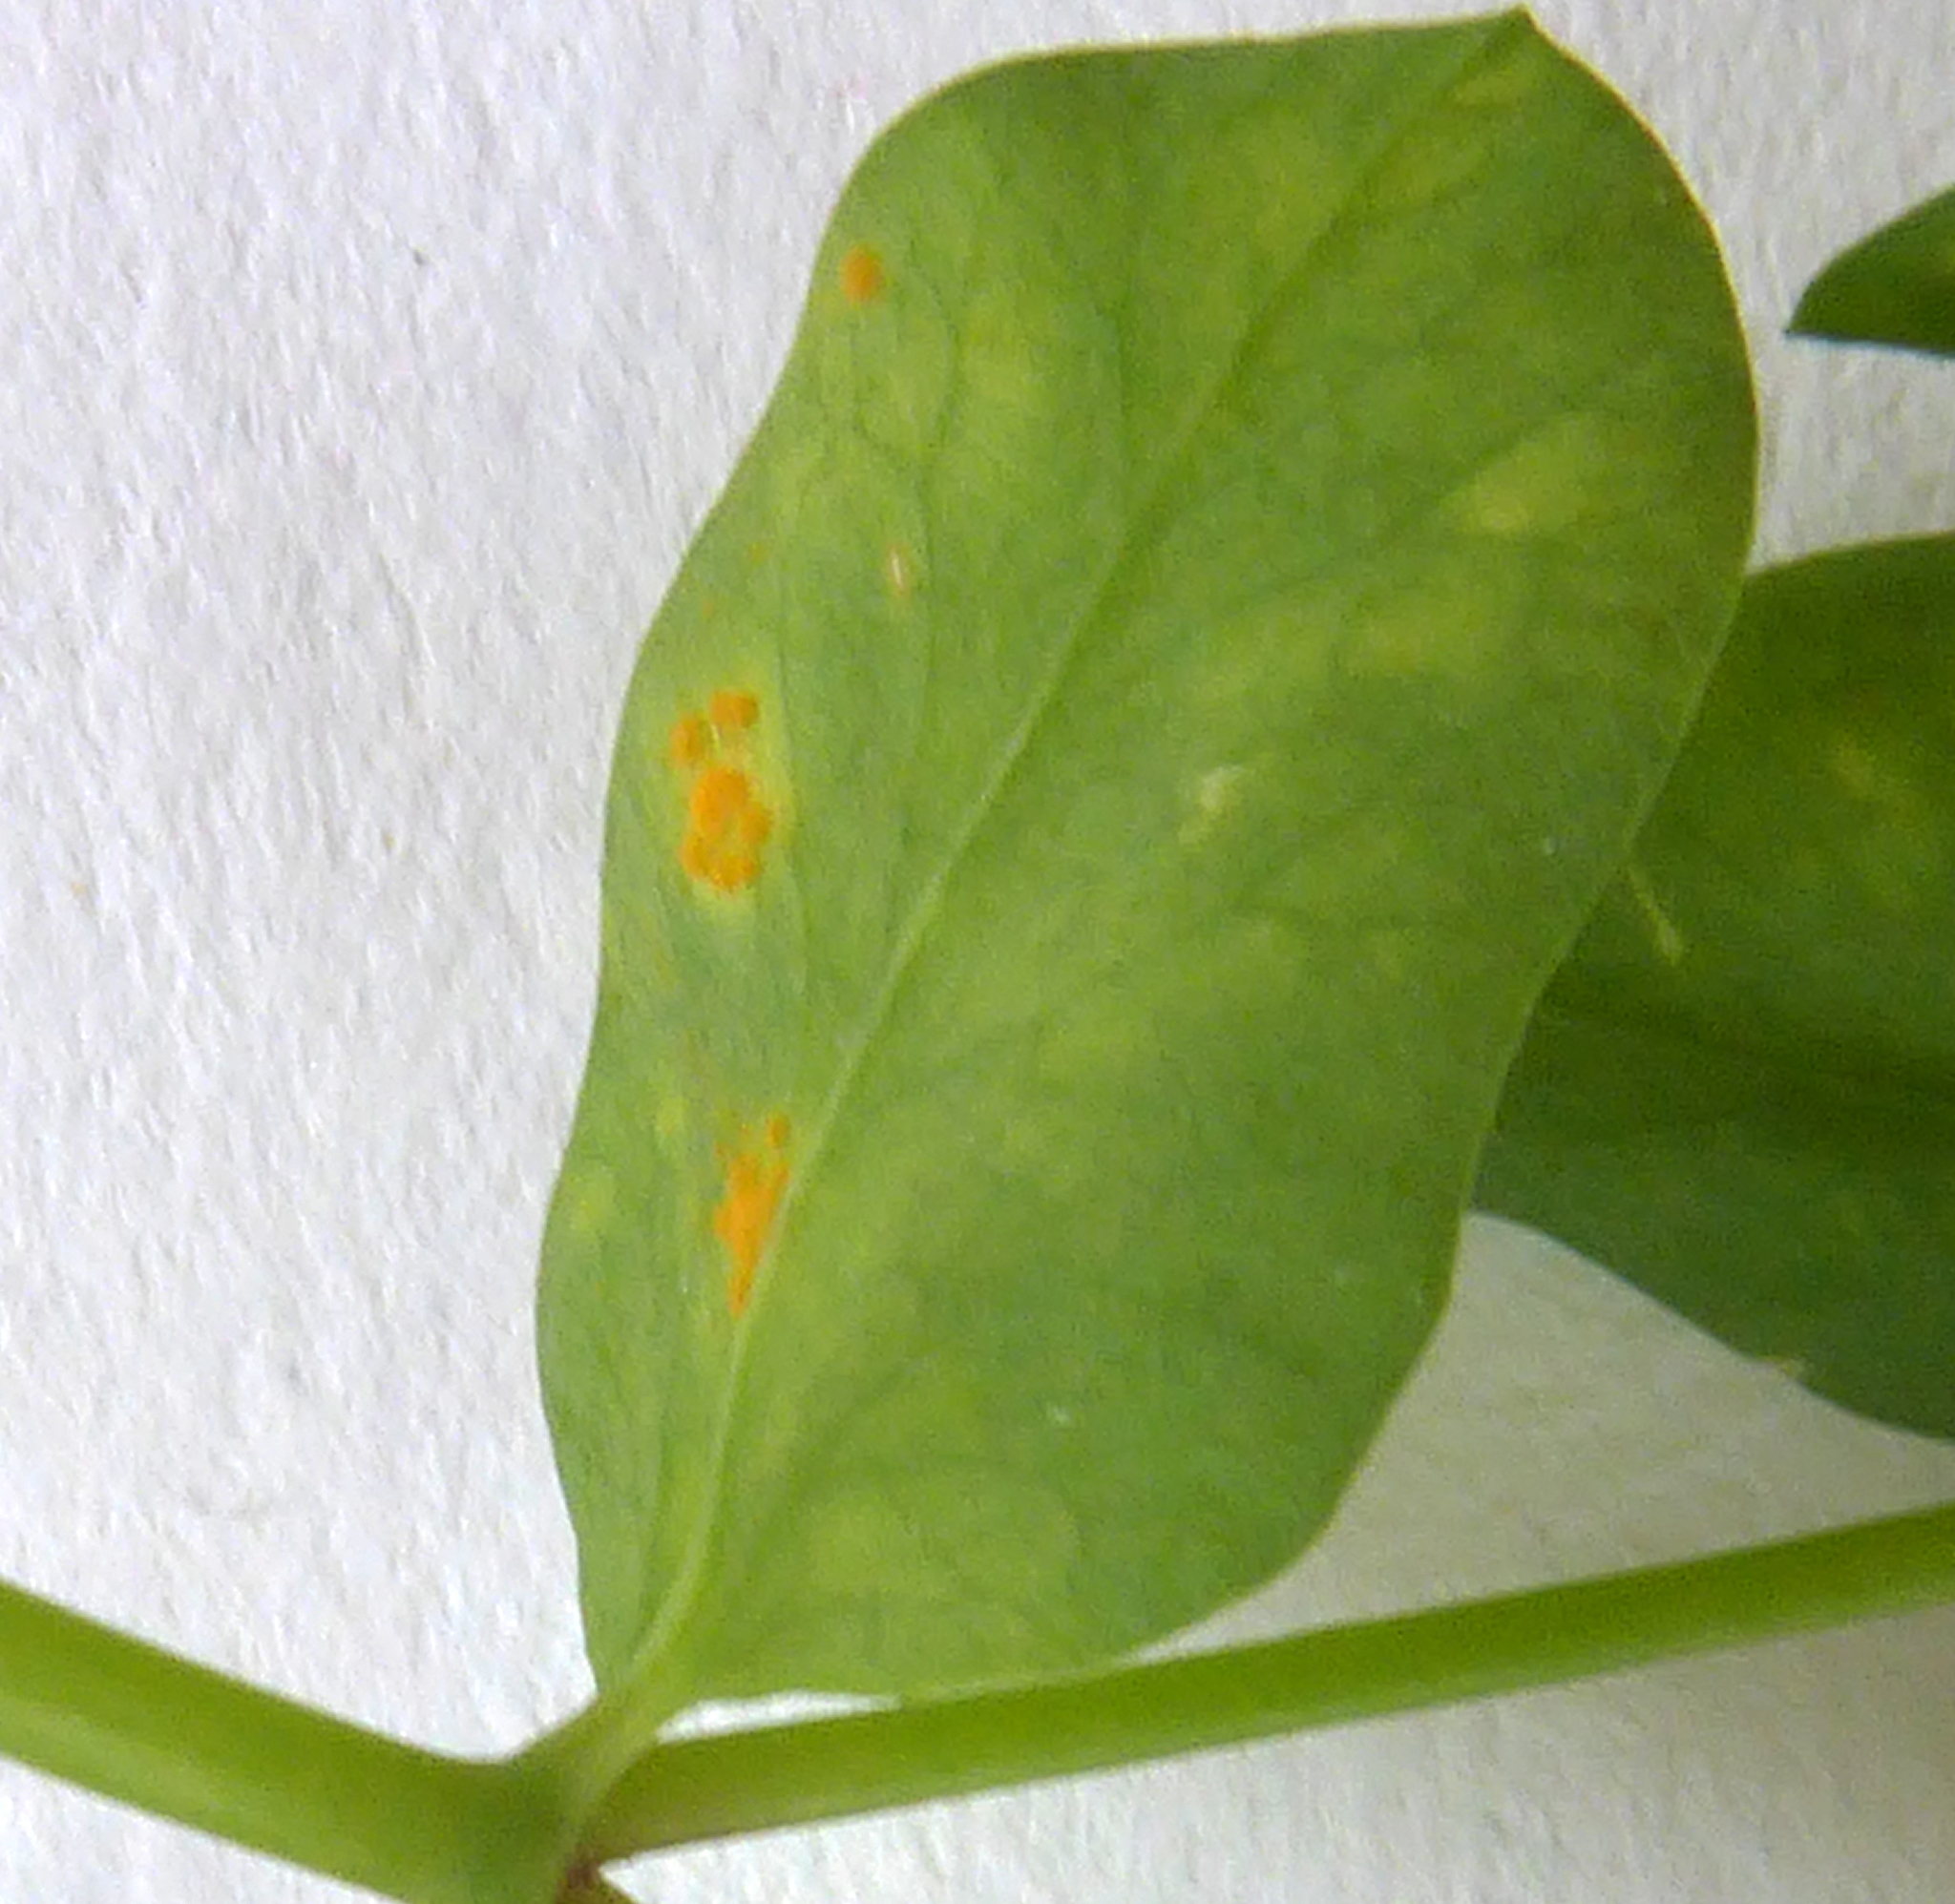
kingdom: Fungi
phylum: Basidiomycota
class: Pucciniomycetes
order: Pucciniales
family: Melampsoraceae
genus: Melampsora
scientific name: Melampsora euphorbiae
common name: Spurge rust
